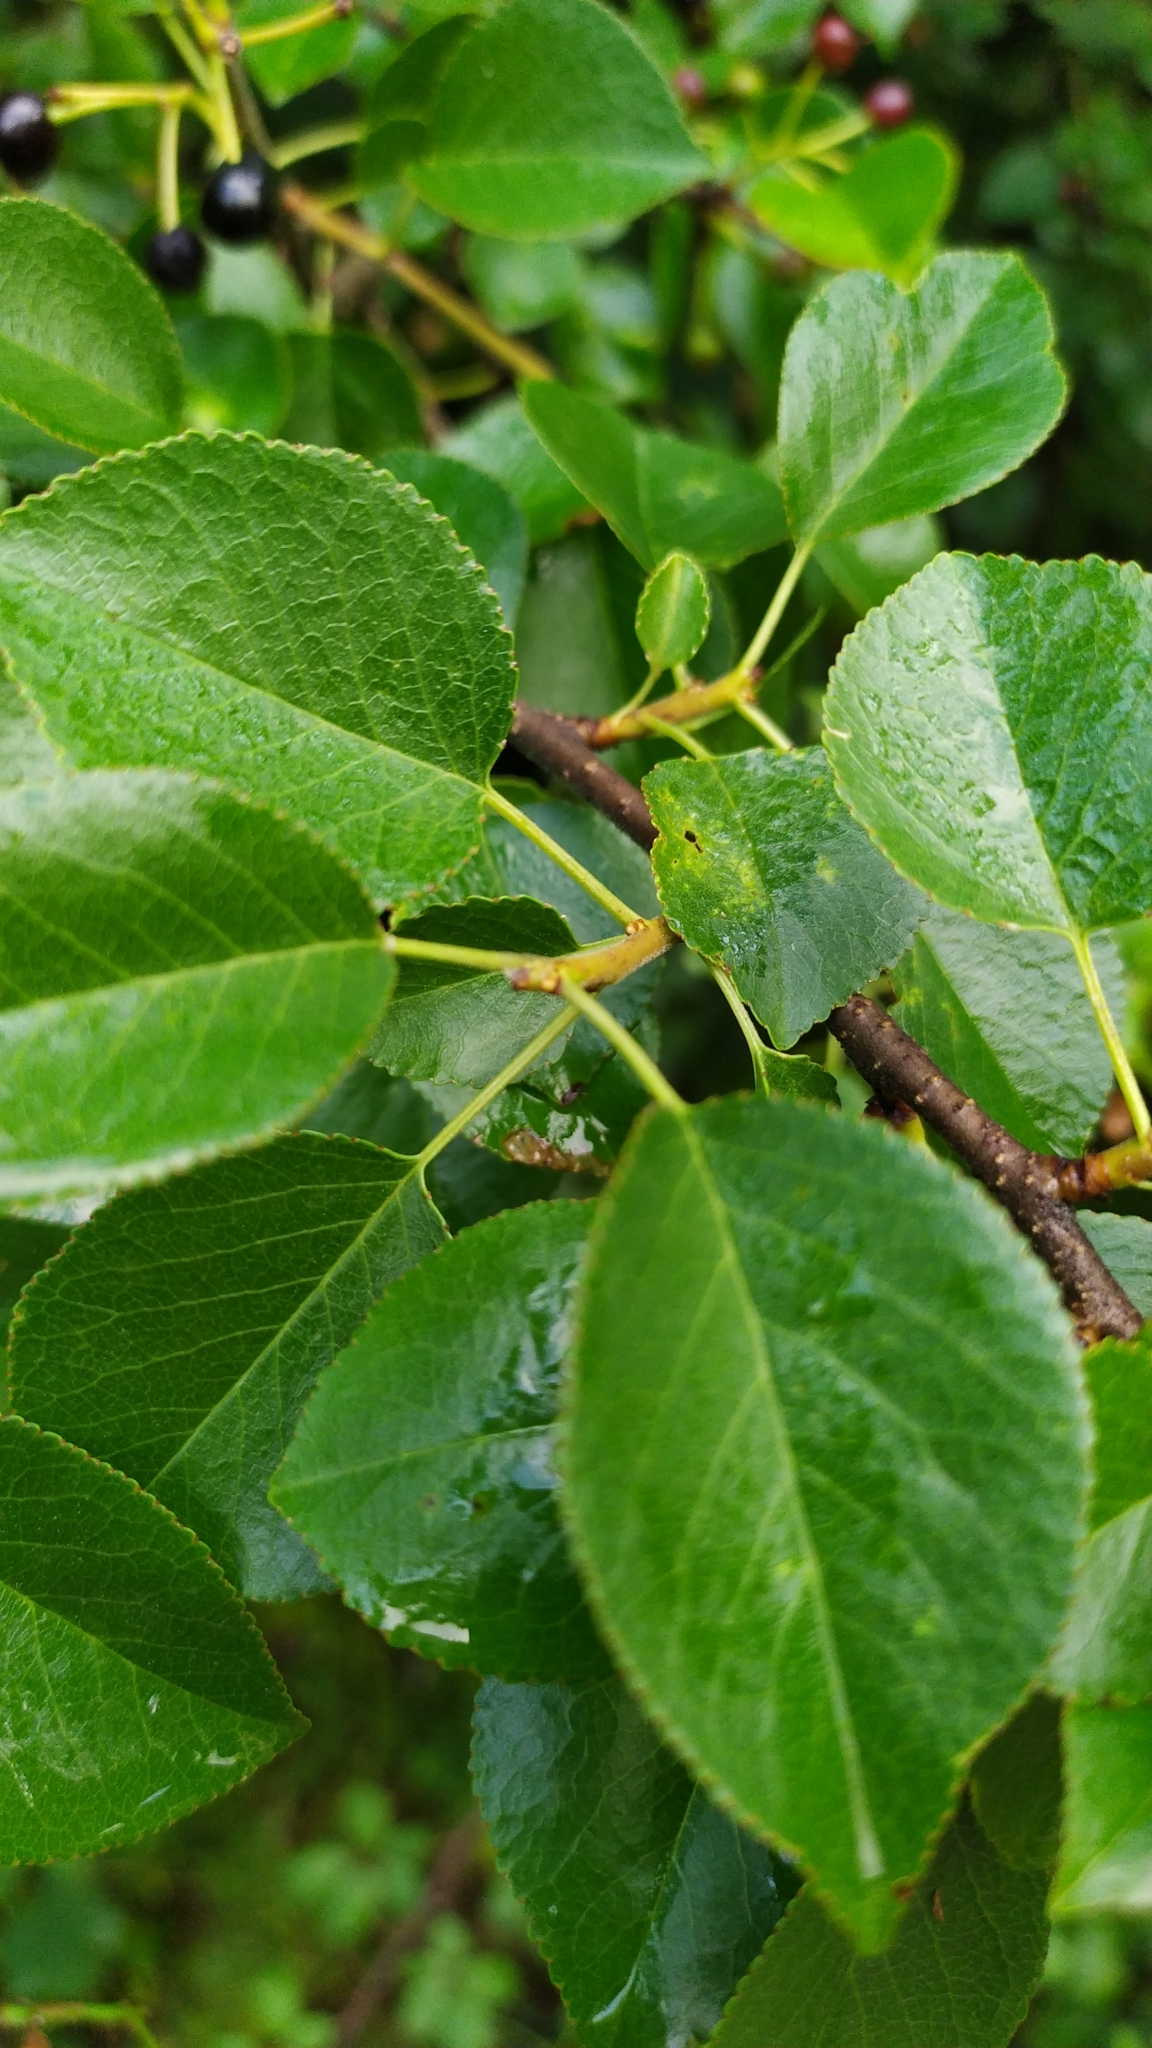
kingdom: Plantae
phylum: Tracheophyta
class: Magnoliopsida
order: Rosales
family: Rosaceae
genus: Prunus
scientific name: Prunus mahaleb
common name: Mahaleb cherry
